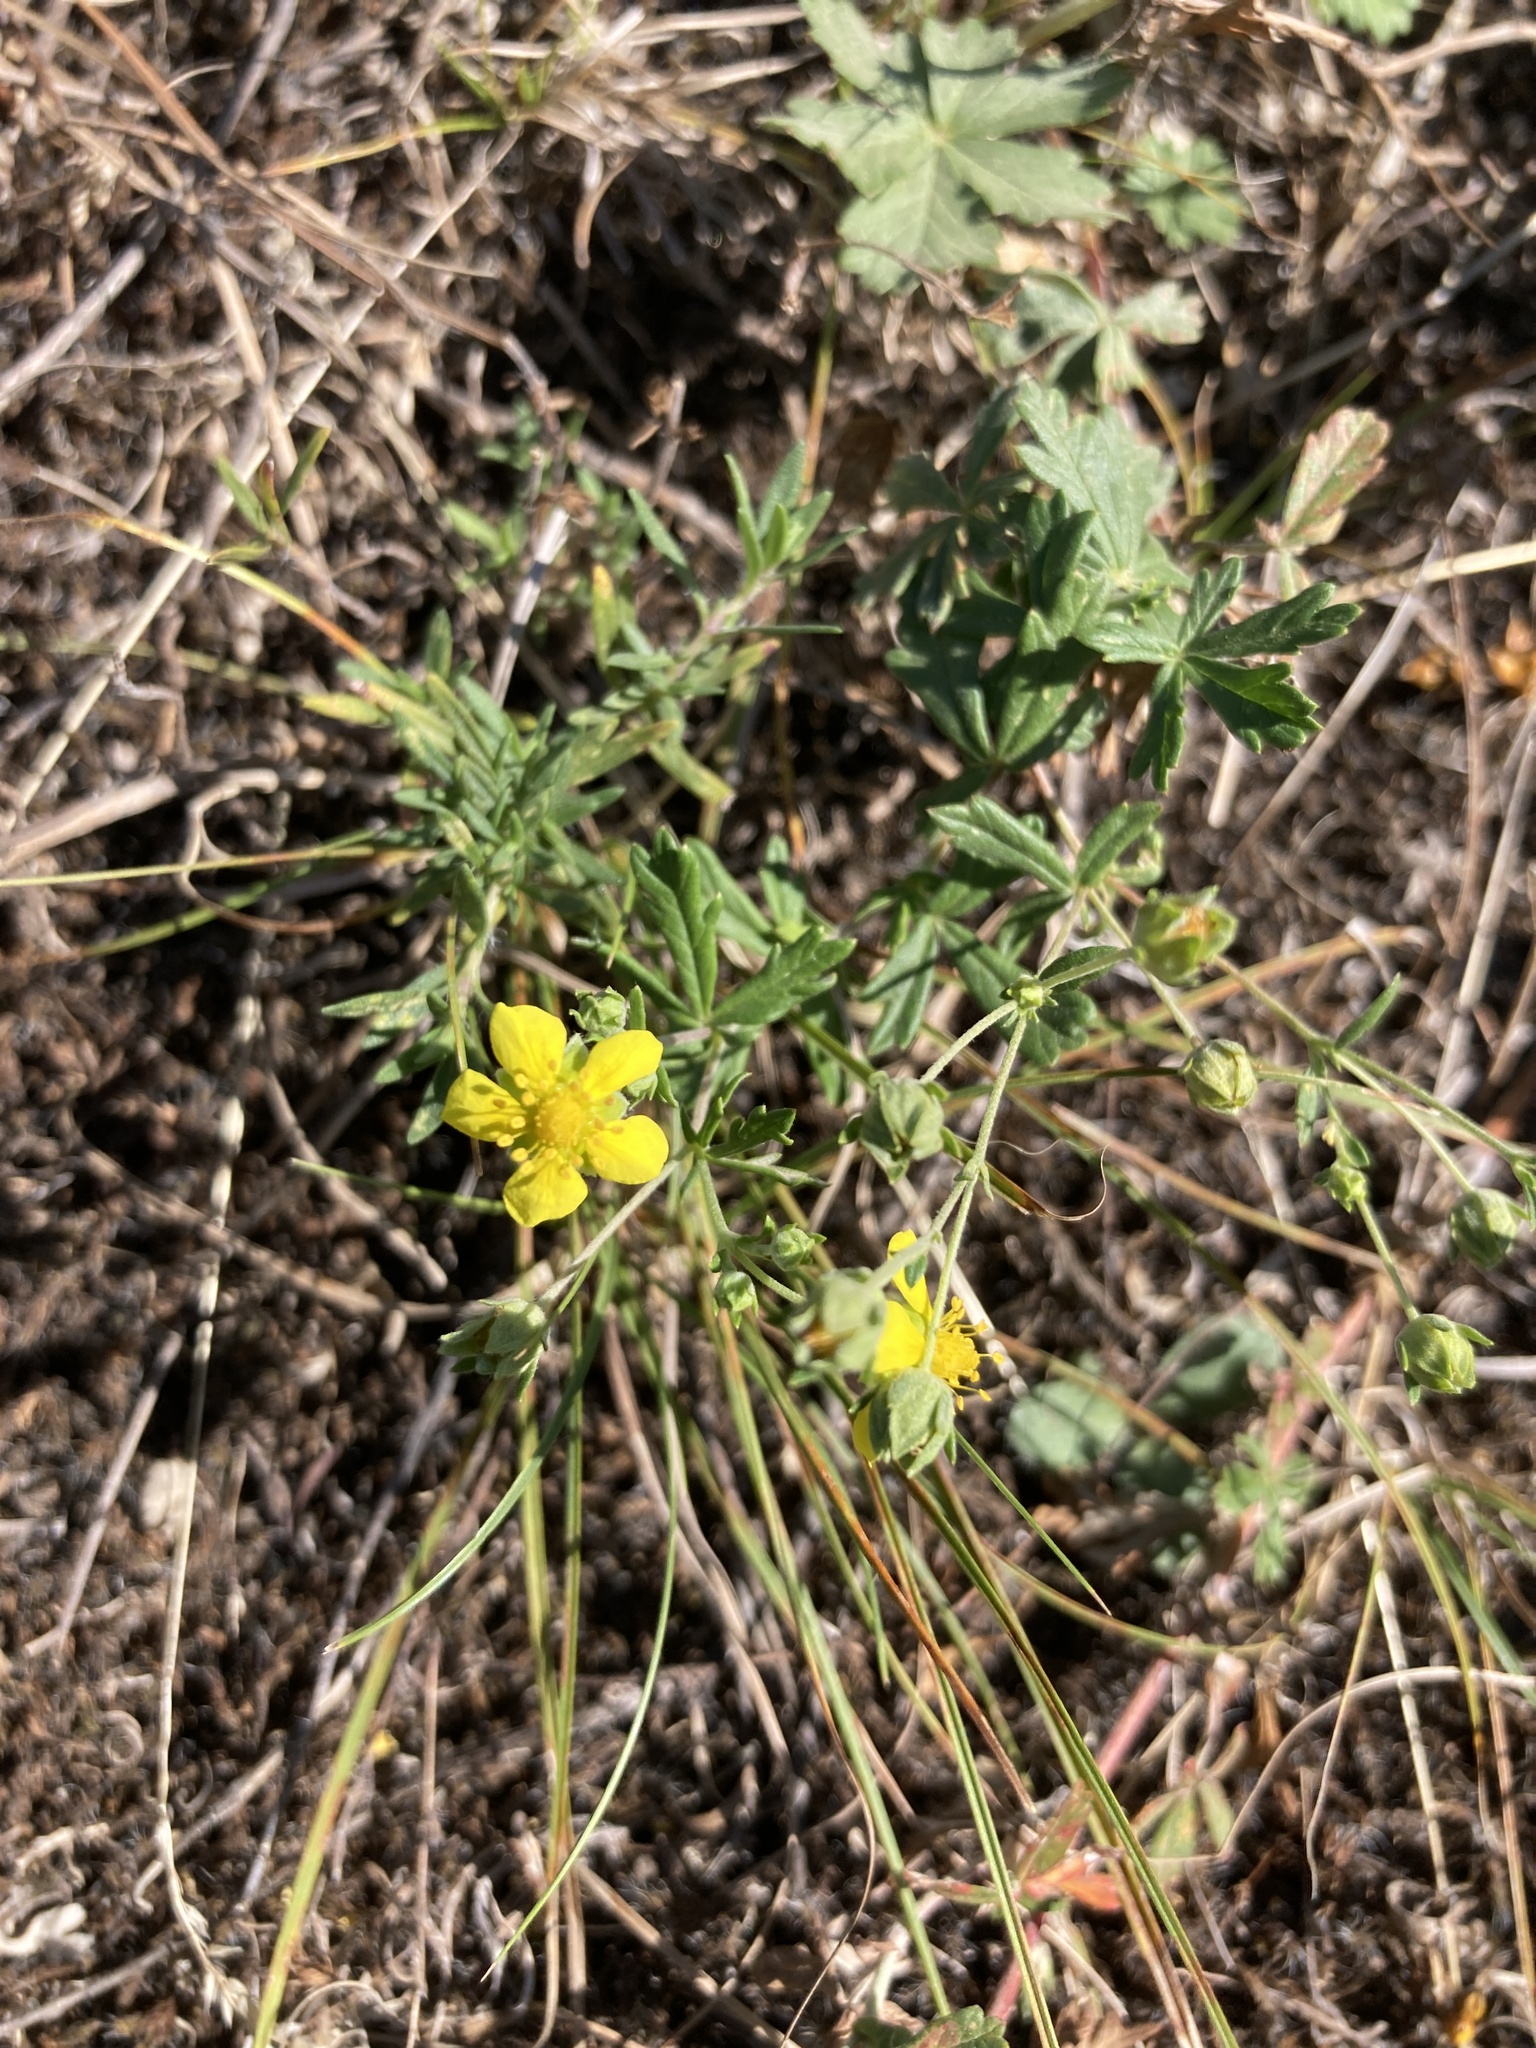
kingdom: Plantae
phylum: Tracheophyta
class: Magnoliopsida
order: Rosales
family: Rosaceae
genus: Potentilla
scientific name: Potentilla argentea
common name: Hoary cinquefoil
